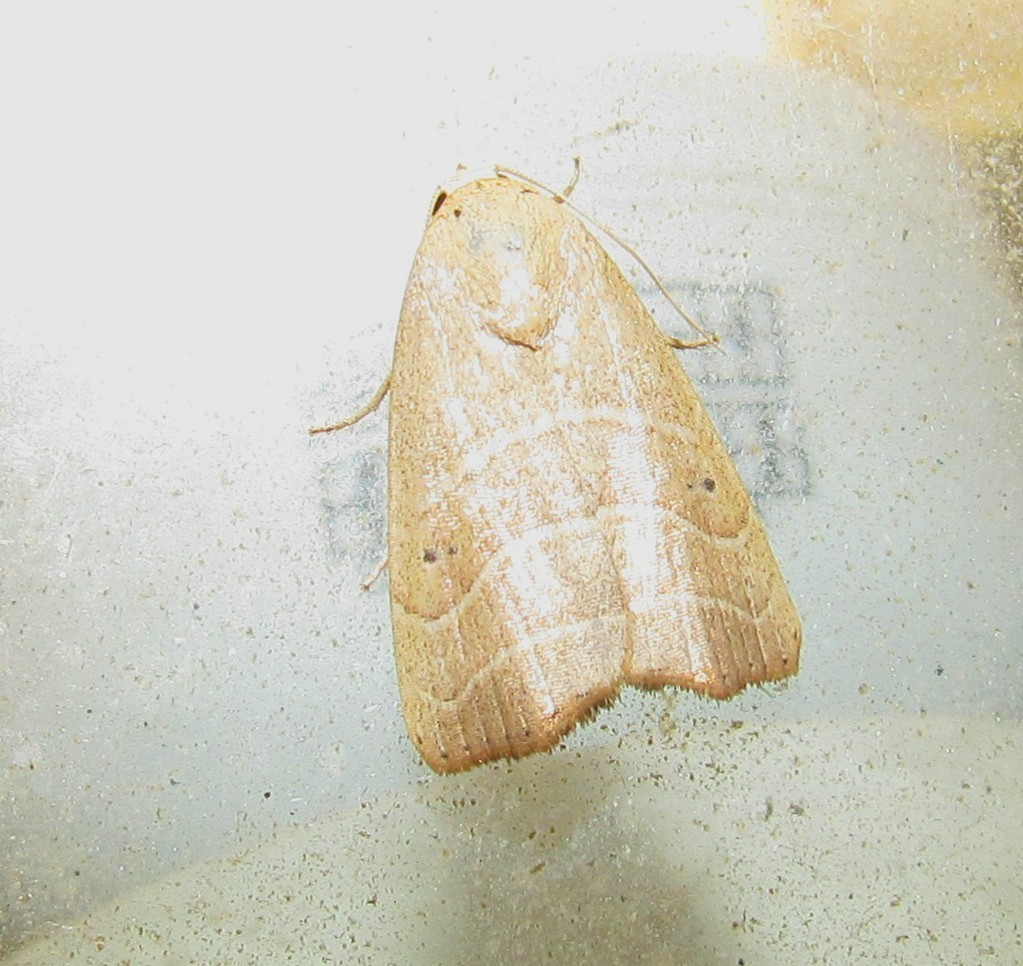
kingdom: Animalia
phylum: Arthropoda
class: Insecta
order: Lepidoptera
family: Noctuidae
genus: Bagisara
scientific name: Bagisara repanda
